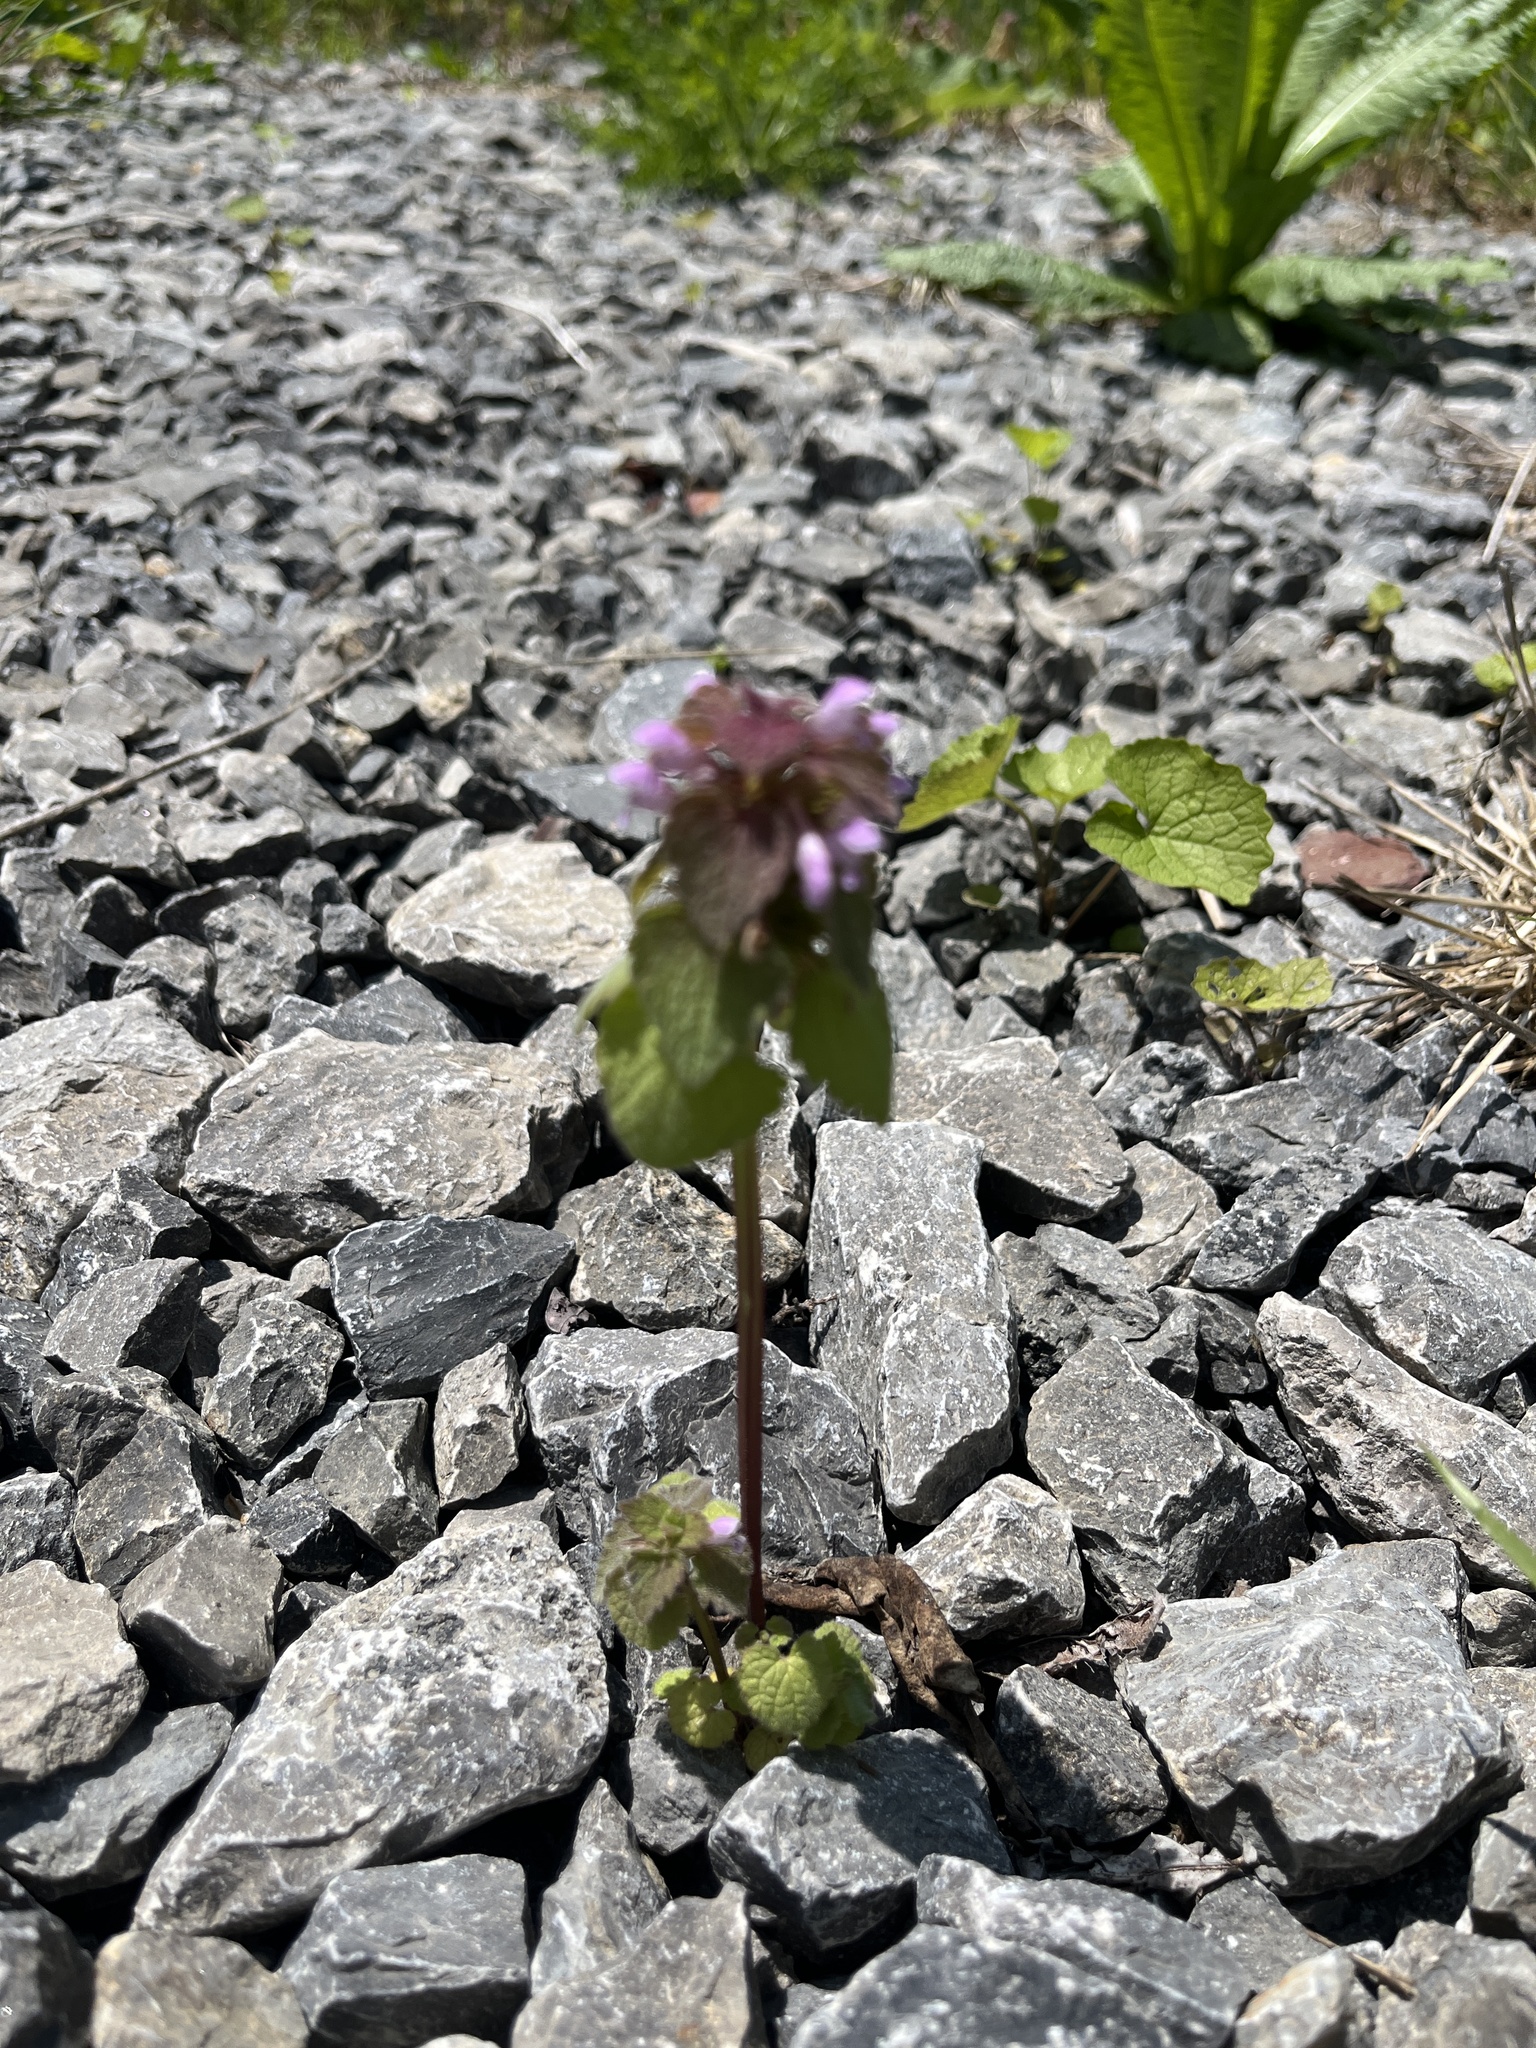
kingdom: Plantae
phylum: Tracheophyta
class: Magnoliopsida
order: Lamiales
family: Lamiaceae
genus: Lamium
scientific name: Lamium purpureum
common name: Red dead-nettle
